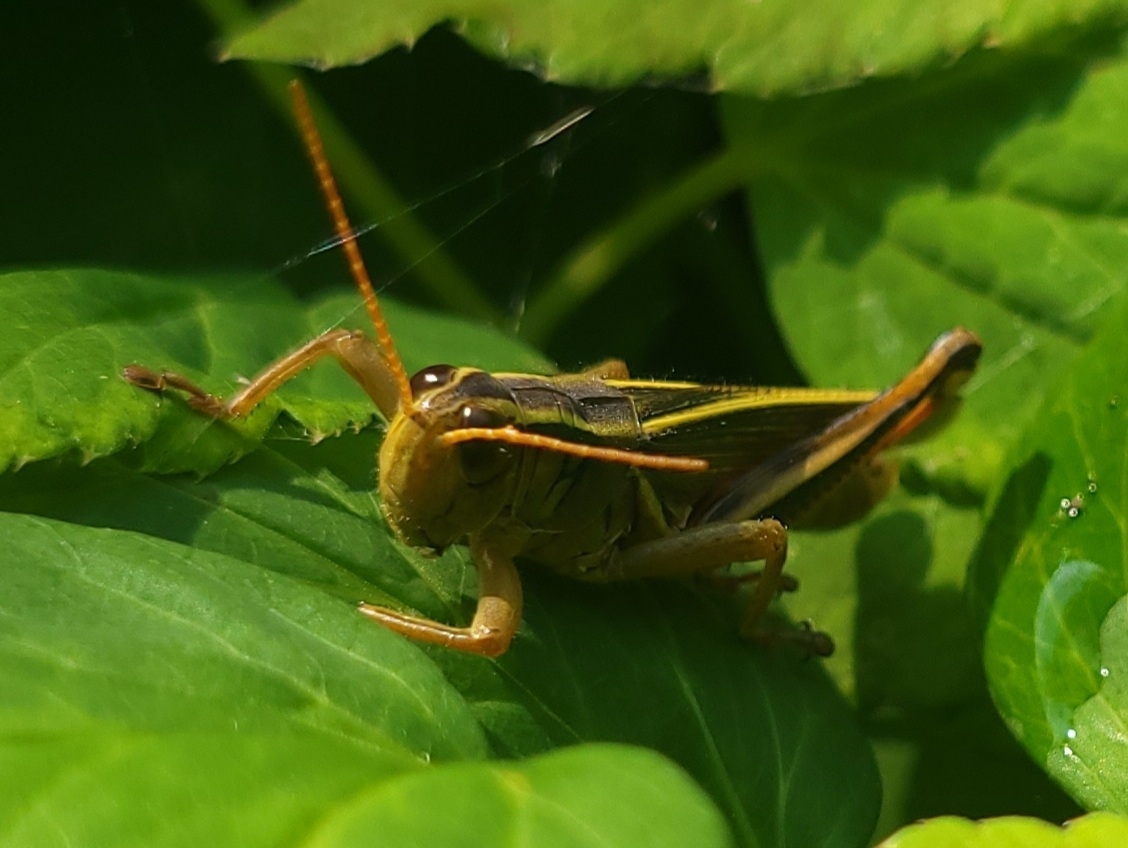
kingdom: Animalia
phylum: Arthropoda
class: Insecta
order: Orthoptera
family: Acrididae
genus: Melanoplus
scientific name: Melanoplus bivittatus
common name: Two-striped grasshopper
